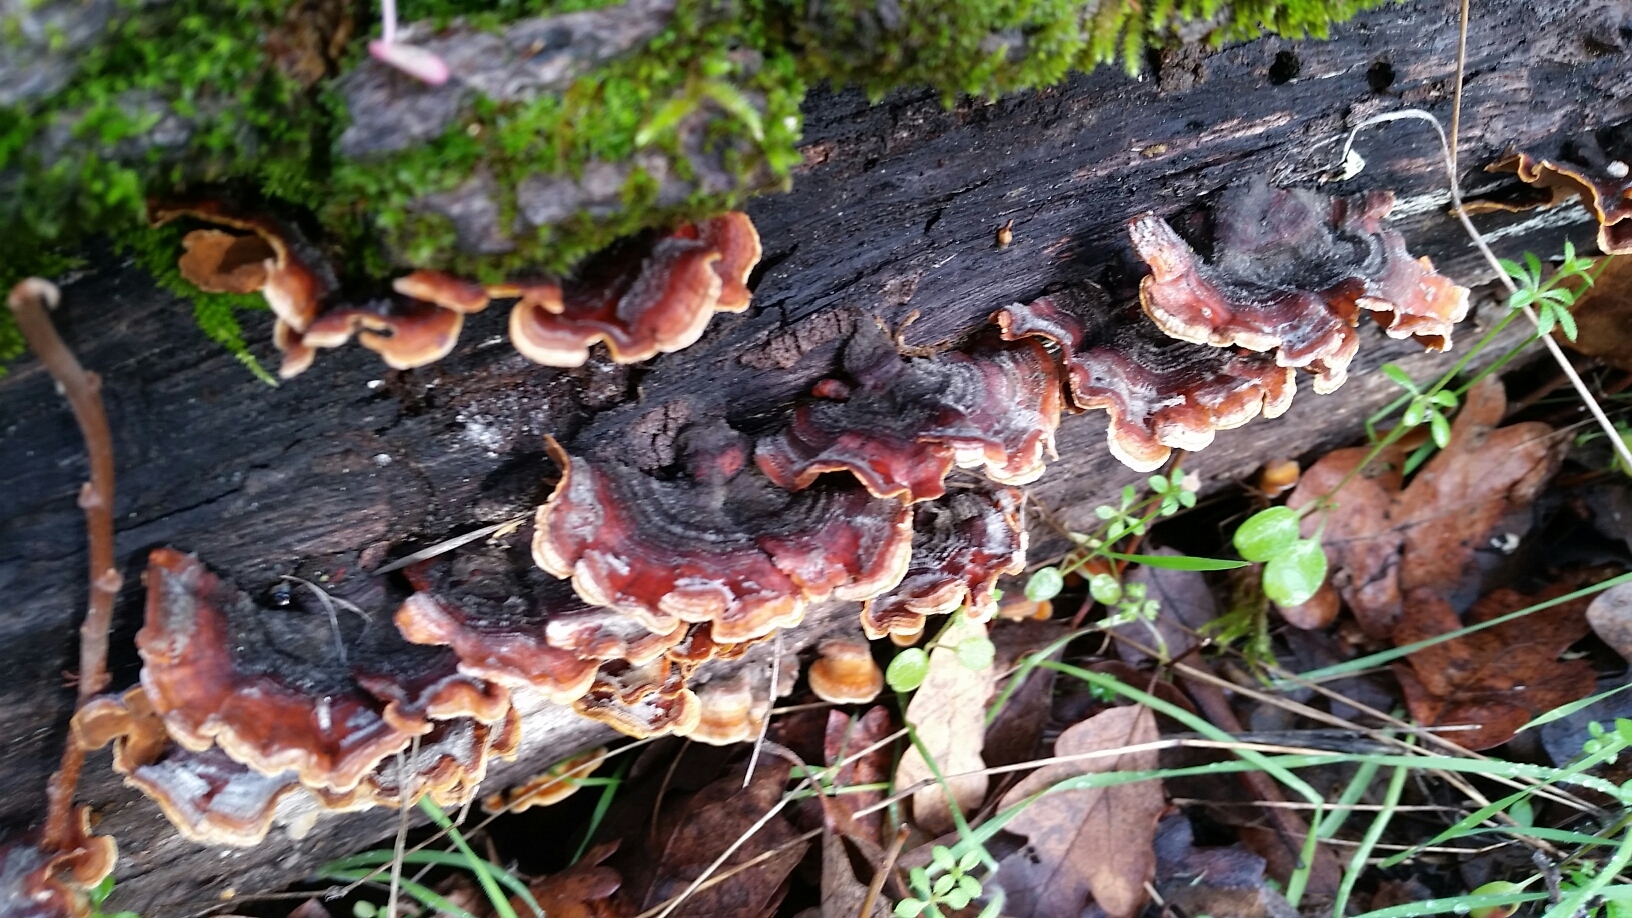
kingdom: Fungi
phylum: Basidiomycota
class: Agaricomycetes
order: Russulales
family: Stereaceae
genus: Stereum
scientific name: Stereum hirsutum
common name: Hairy curtain crust
